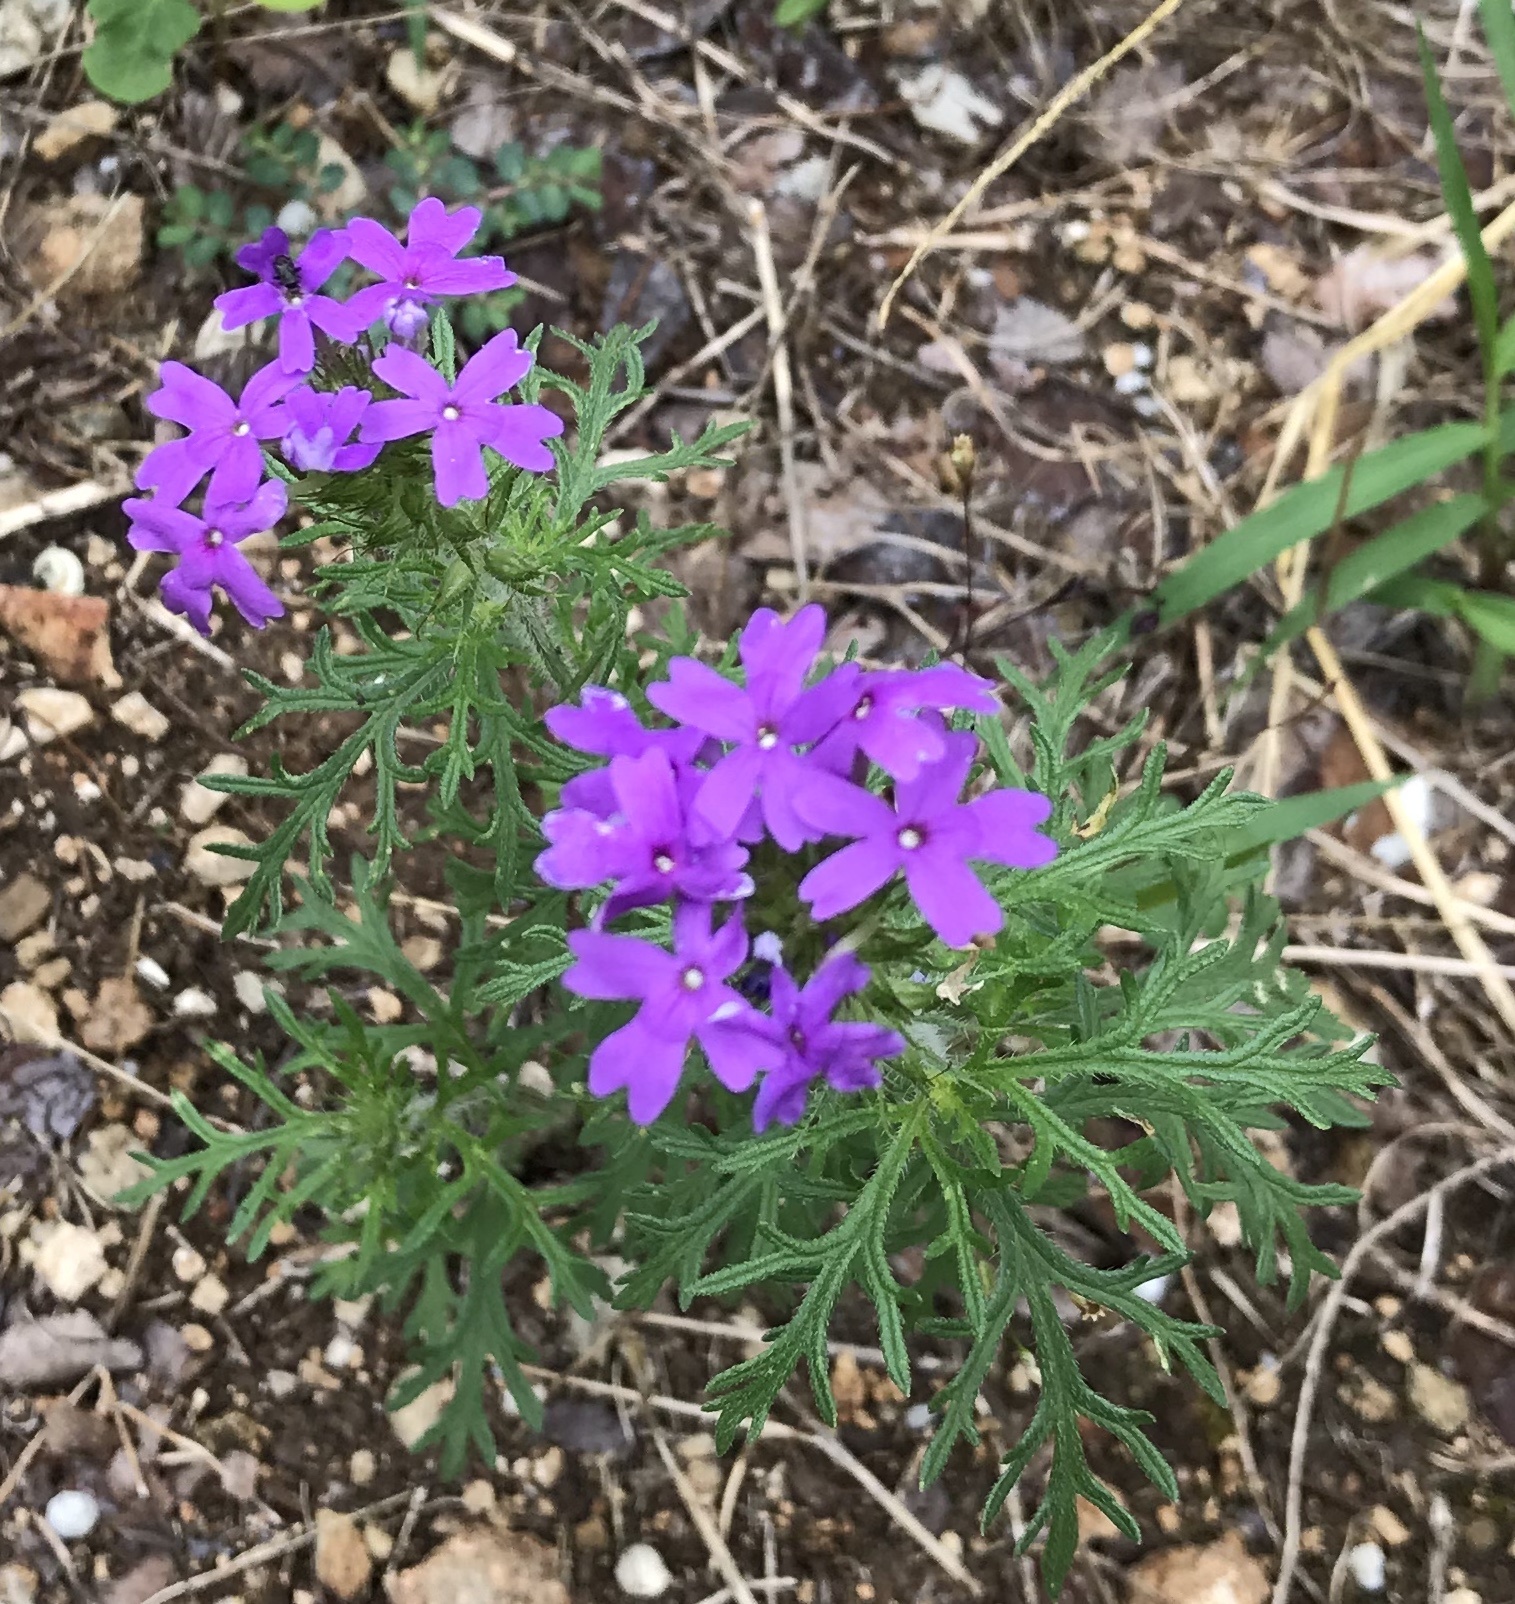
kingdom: Plantae
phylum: Tracheophyta
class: Magnoliopsida
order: Lamiales
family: Verbenaceae
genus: Verbena
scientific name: Verbena bipinnatifida
